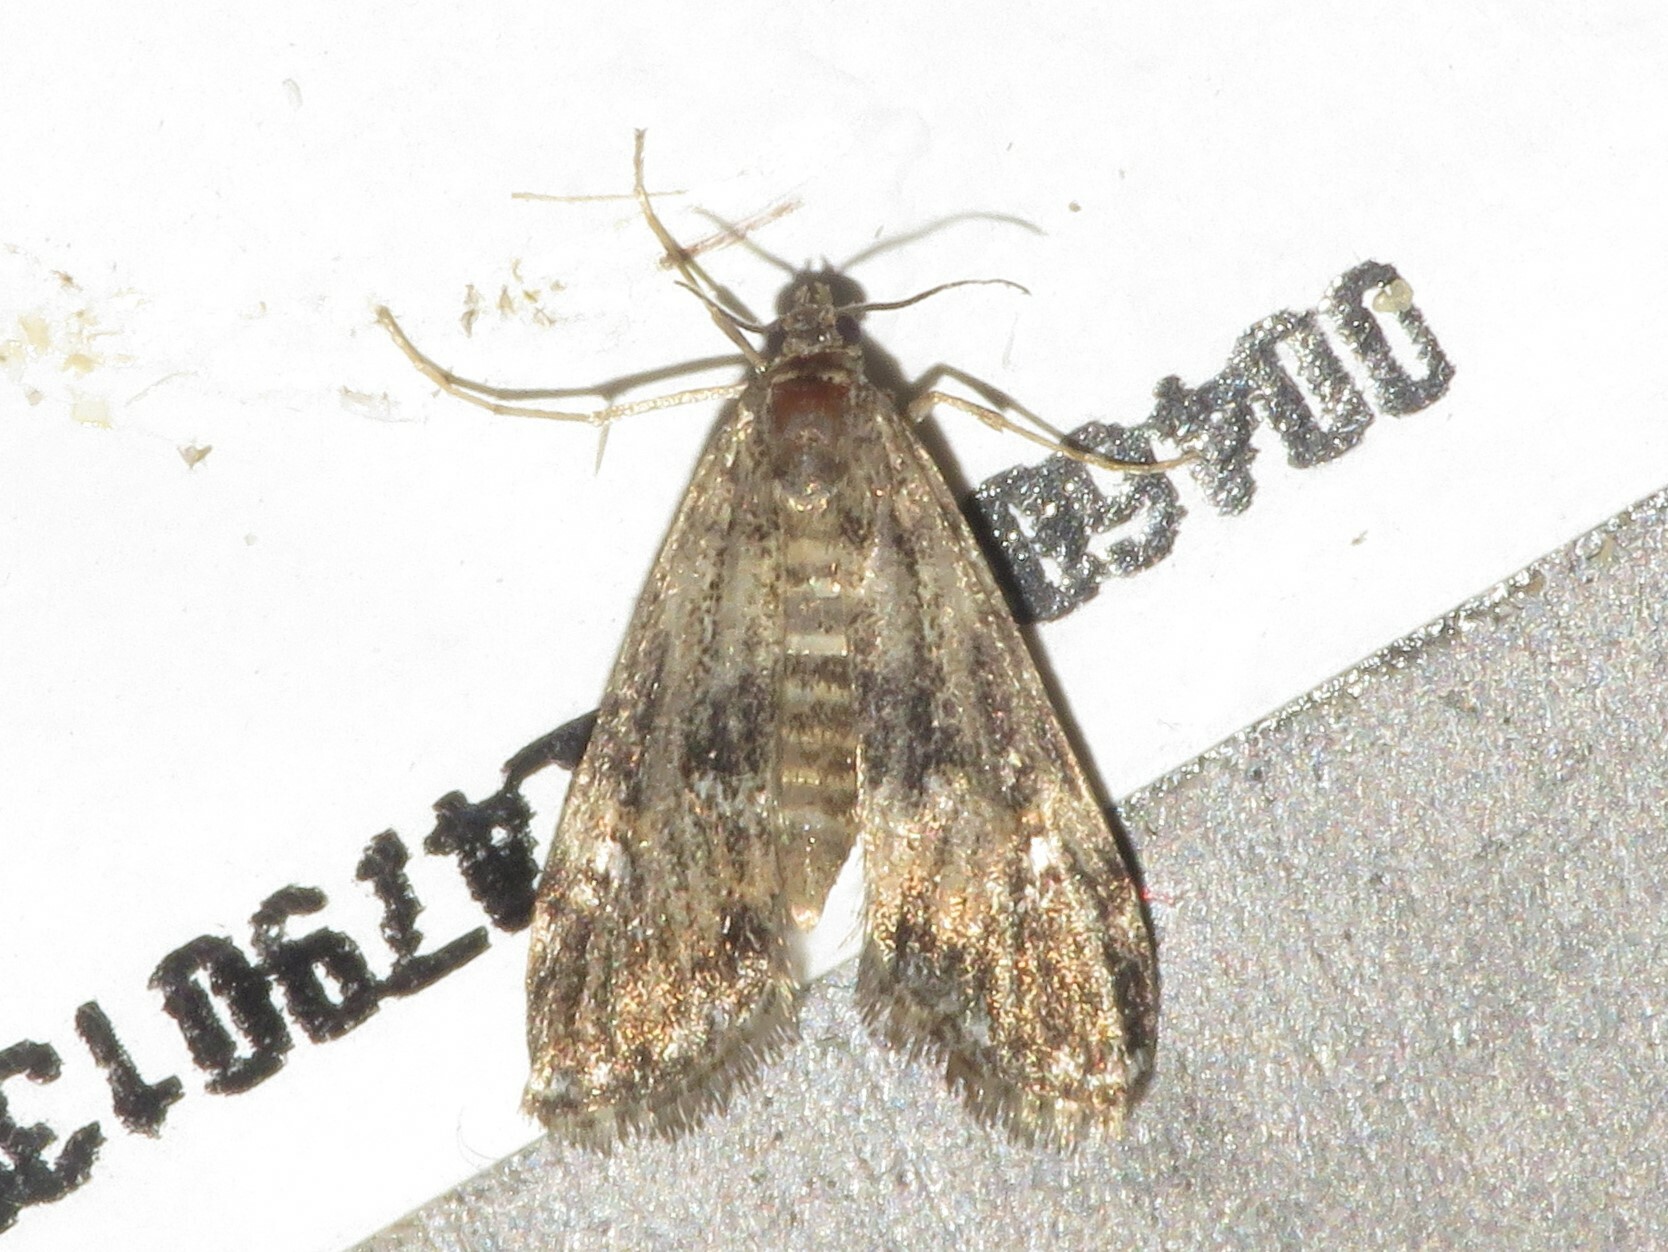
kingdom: Animalia
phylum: Arthropoda
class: Insecta
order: Lepidoptera
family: Crambidae
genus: Elophila
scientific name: Elophila obliteralis
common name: Waterlily leafcutter moth
